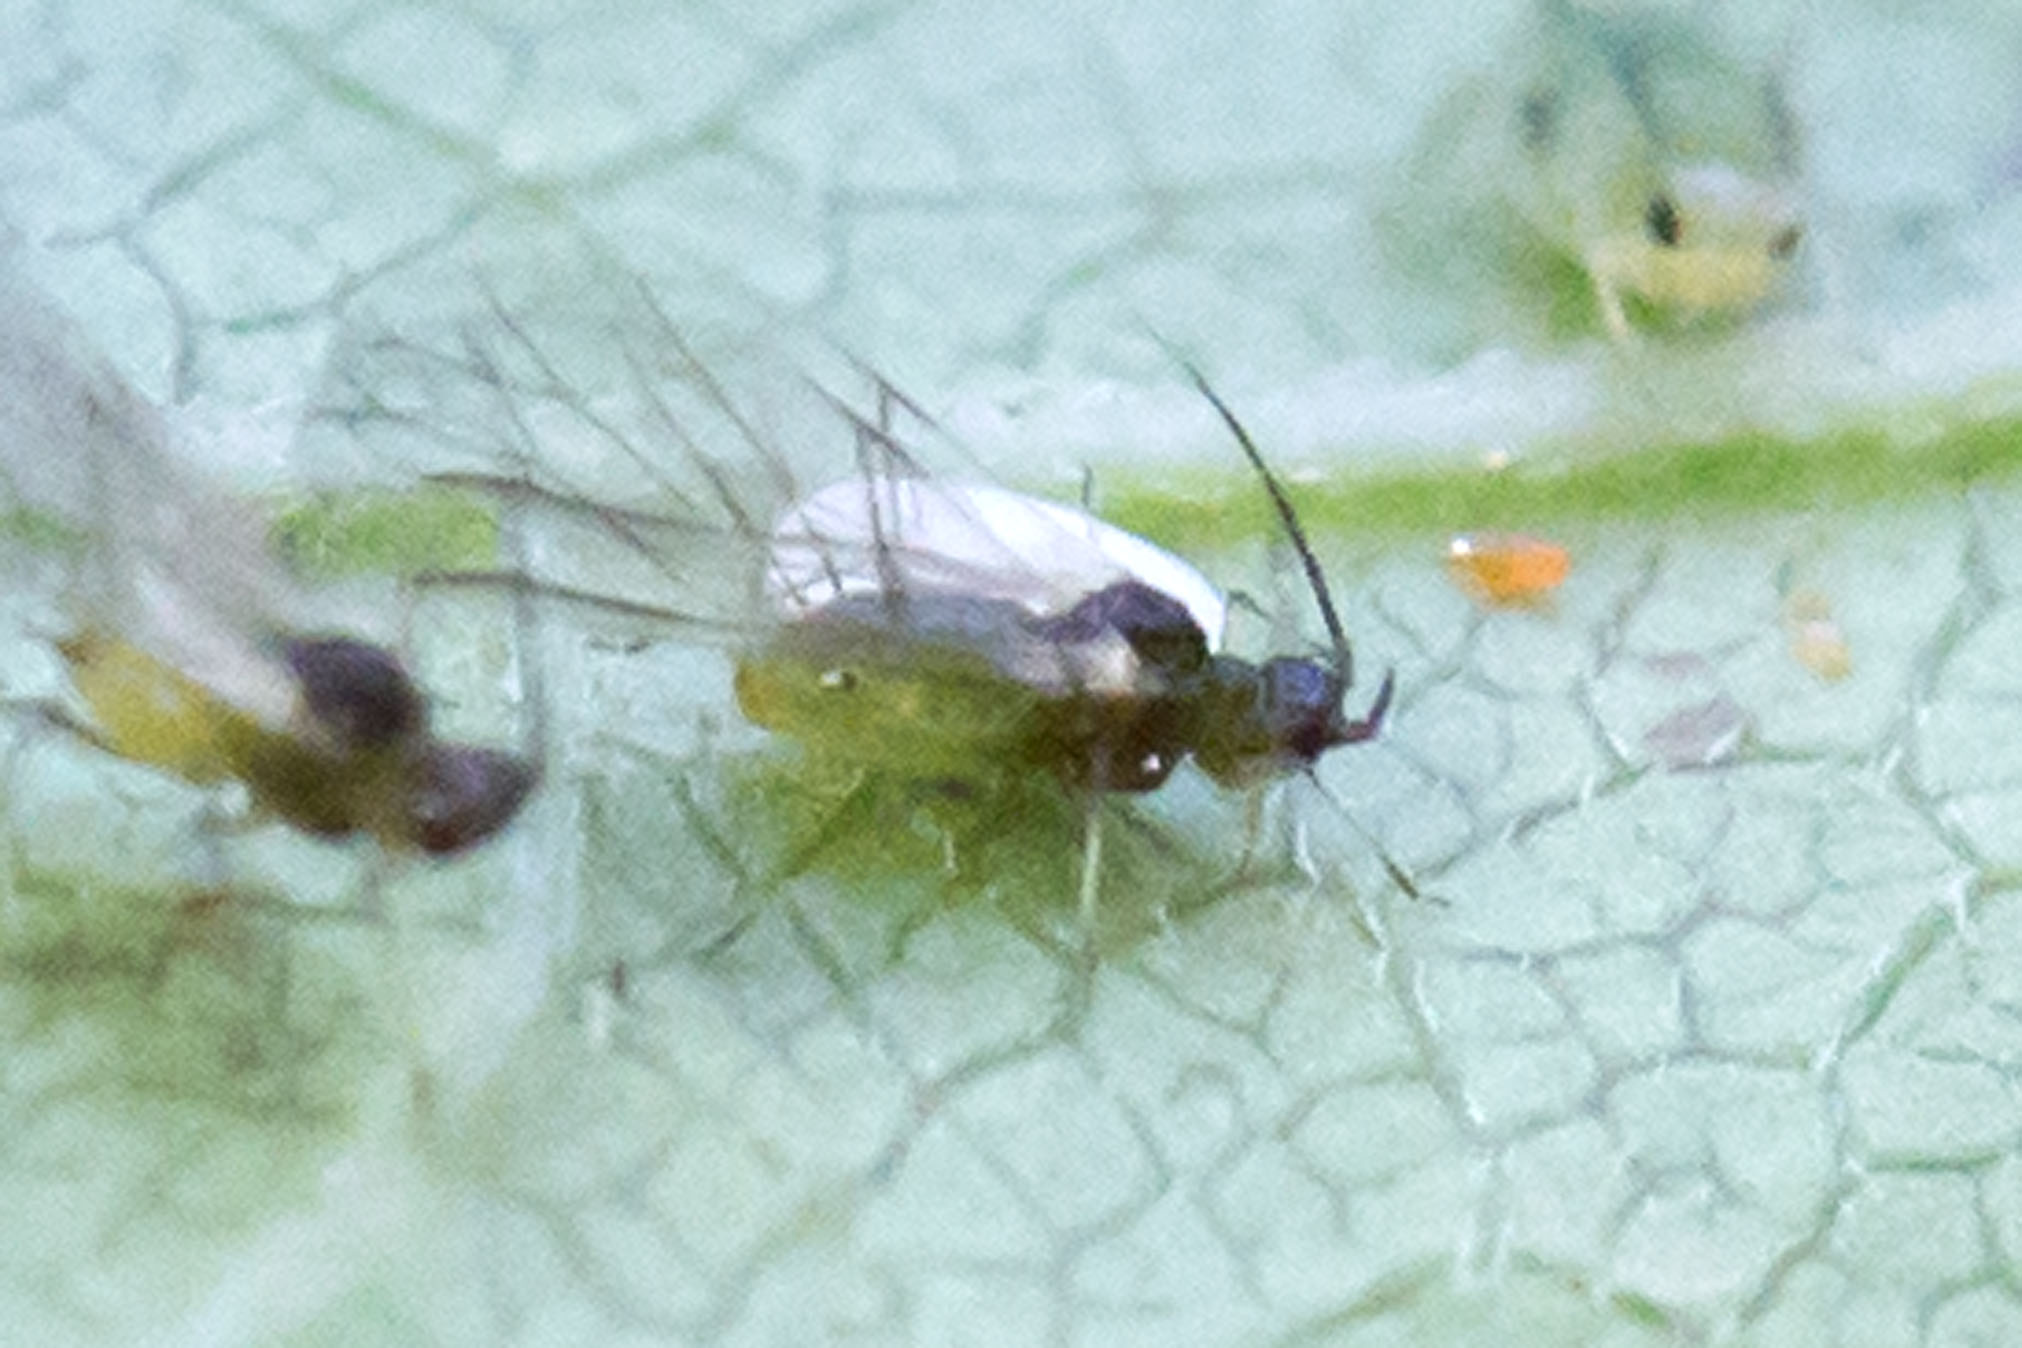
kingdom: Animalia
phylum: Arthropoda
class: Insecta
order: Hemiptera
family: Aphididae
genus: Aphis
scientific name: Aphis coreopsidis
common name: Aphid
